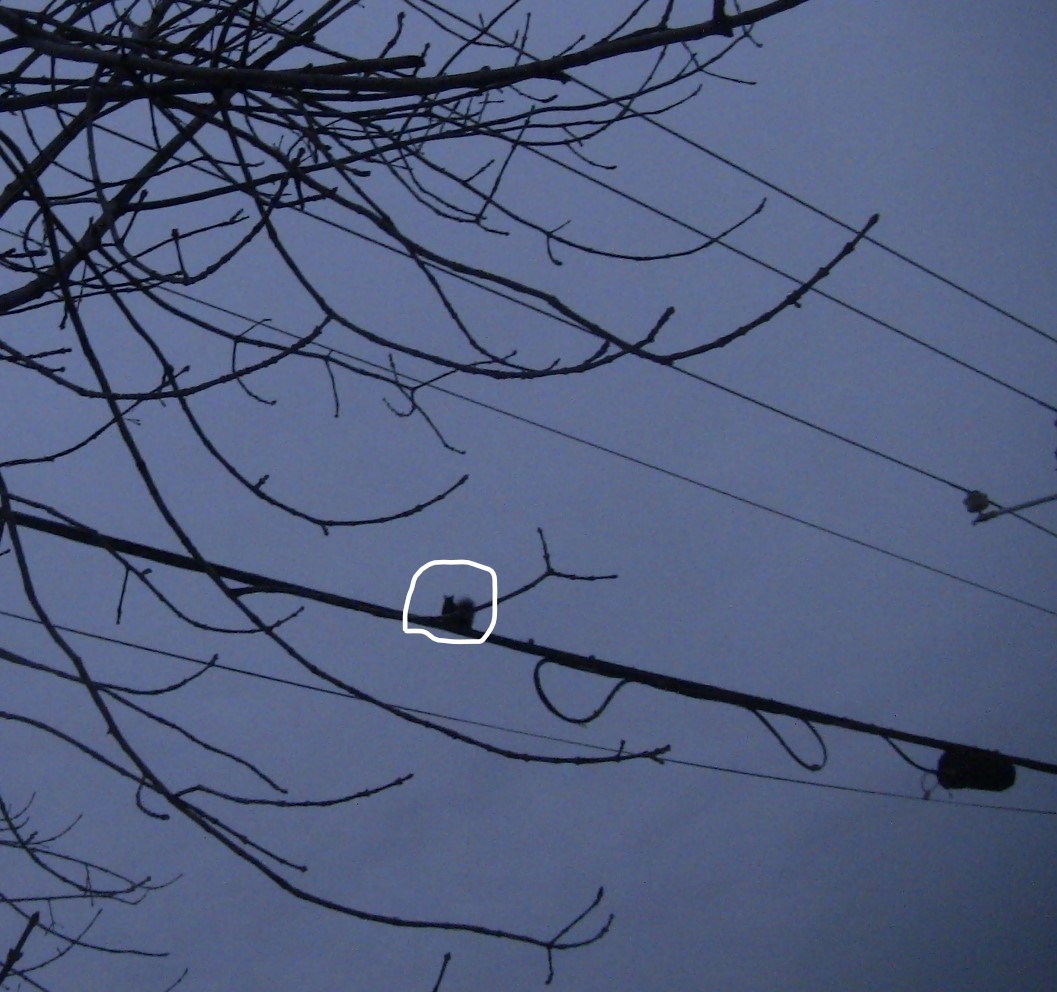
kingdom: Animalia
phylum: Chordata
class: Mammalia
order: Rodentia
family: Sciuridae
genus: Sciurus
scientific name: Sciurus carolinensis
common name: Eastern gray squirrel
